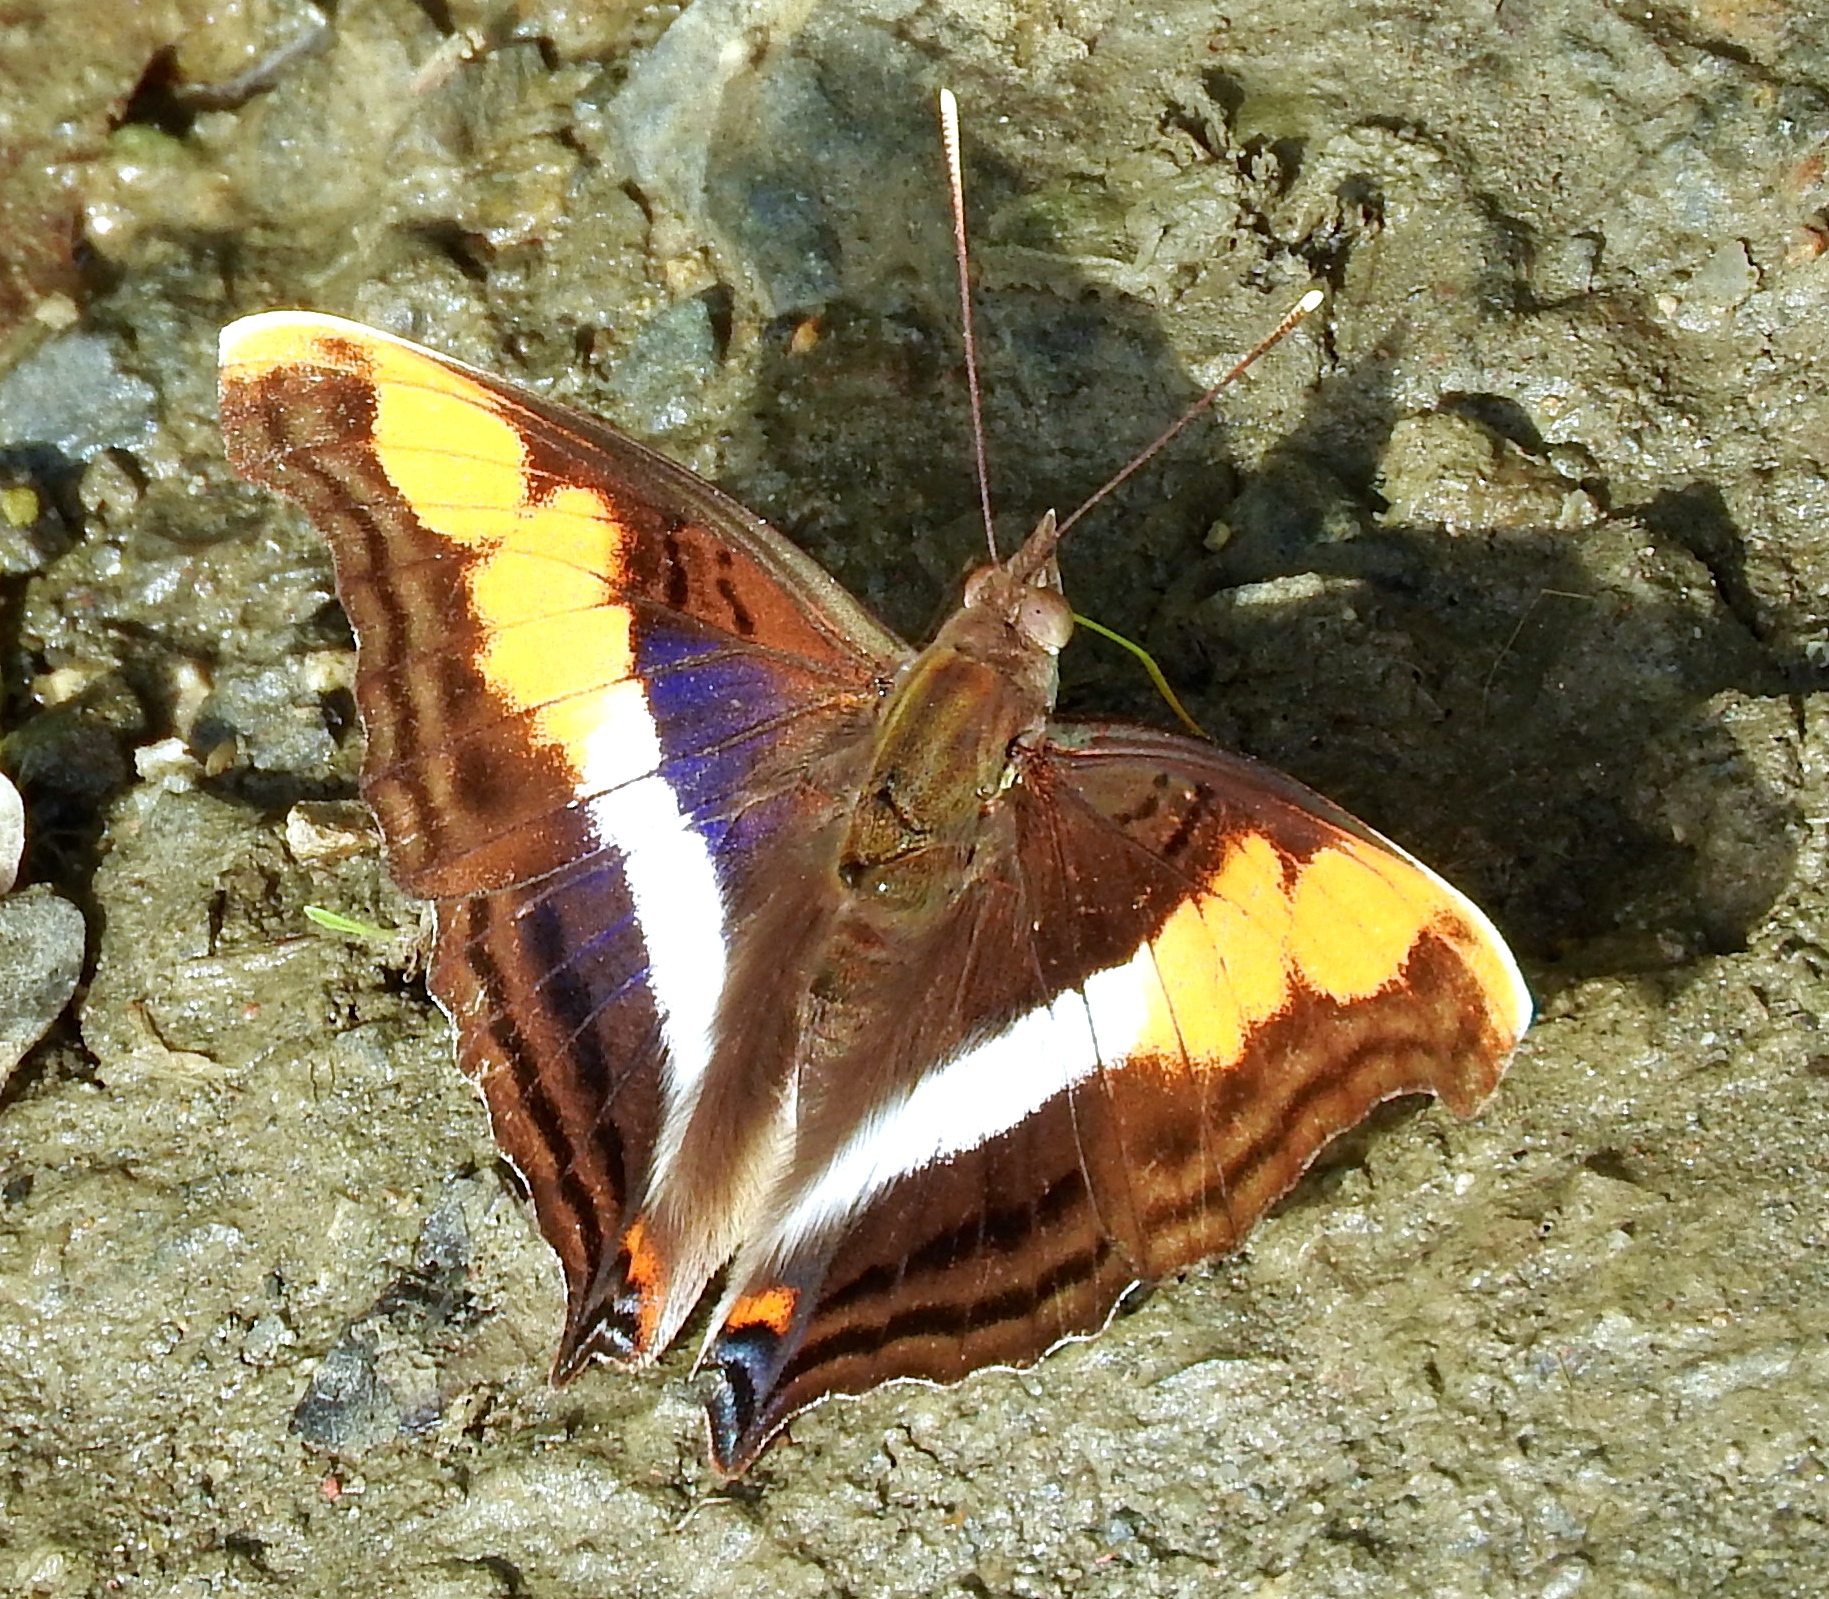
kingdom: Animalia
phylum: Arthropoda
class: Insecta
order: Lepidoptera
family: Nymphalidae
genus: Doxocopa
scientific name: Doxocopa laure
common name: Silver emperor
